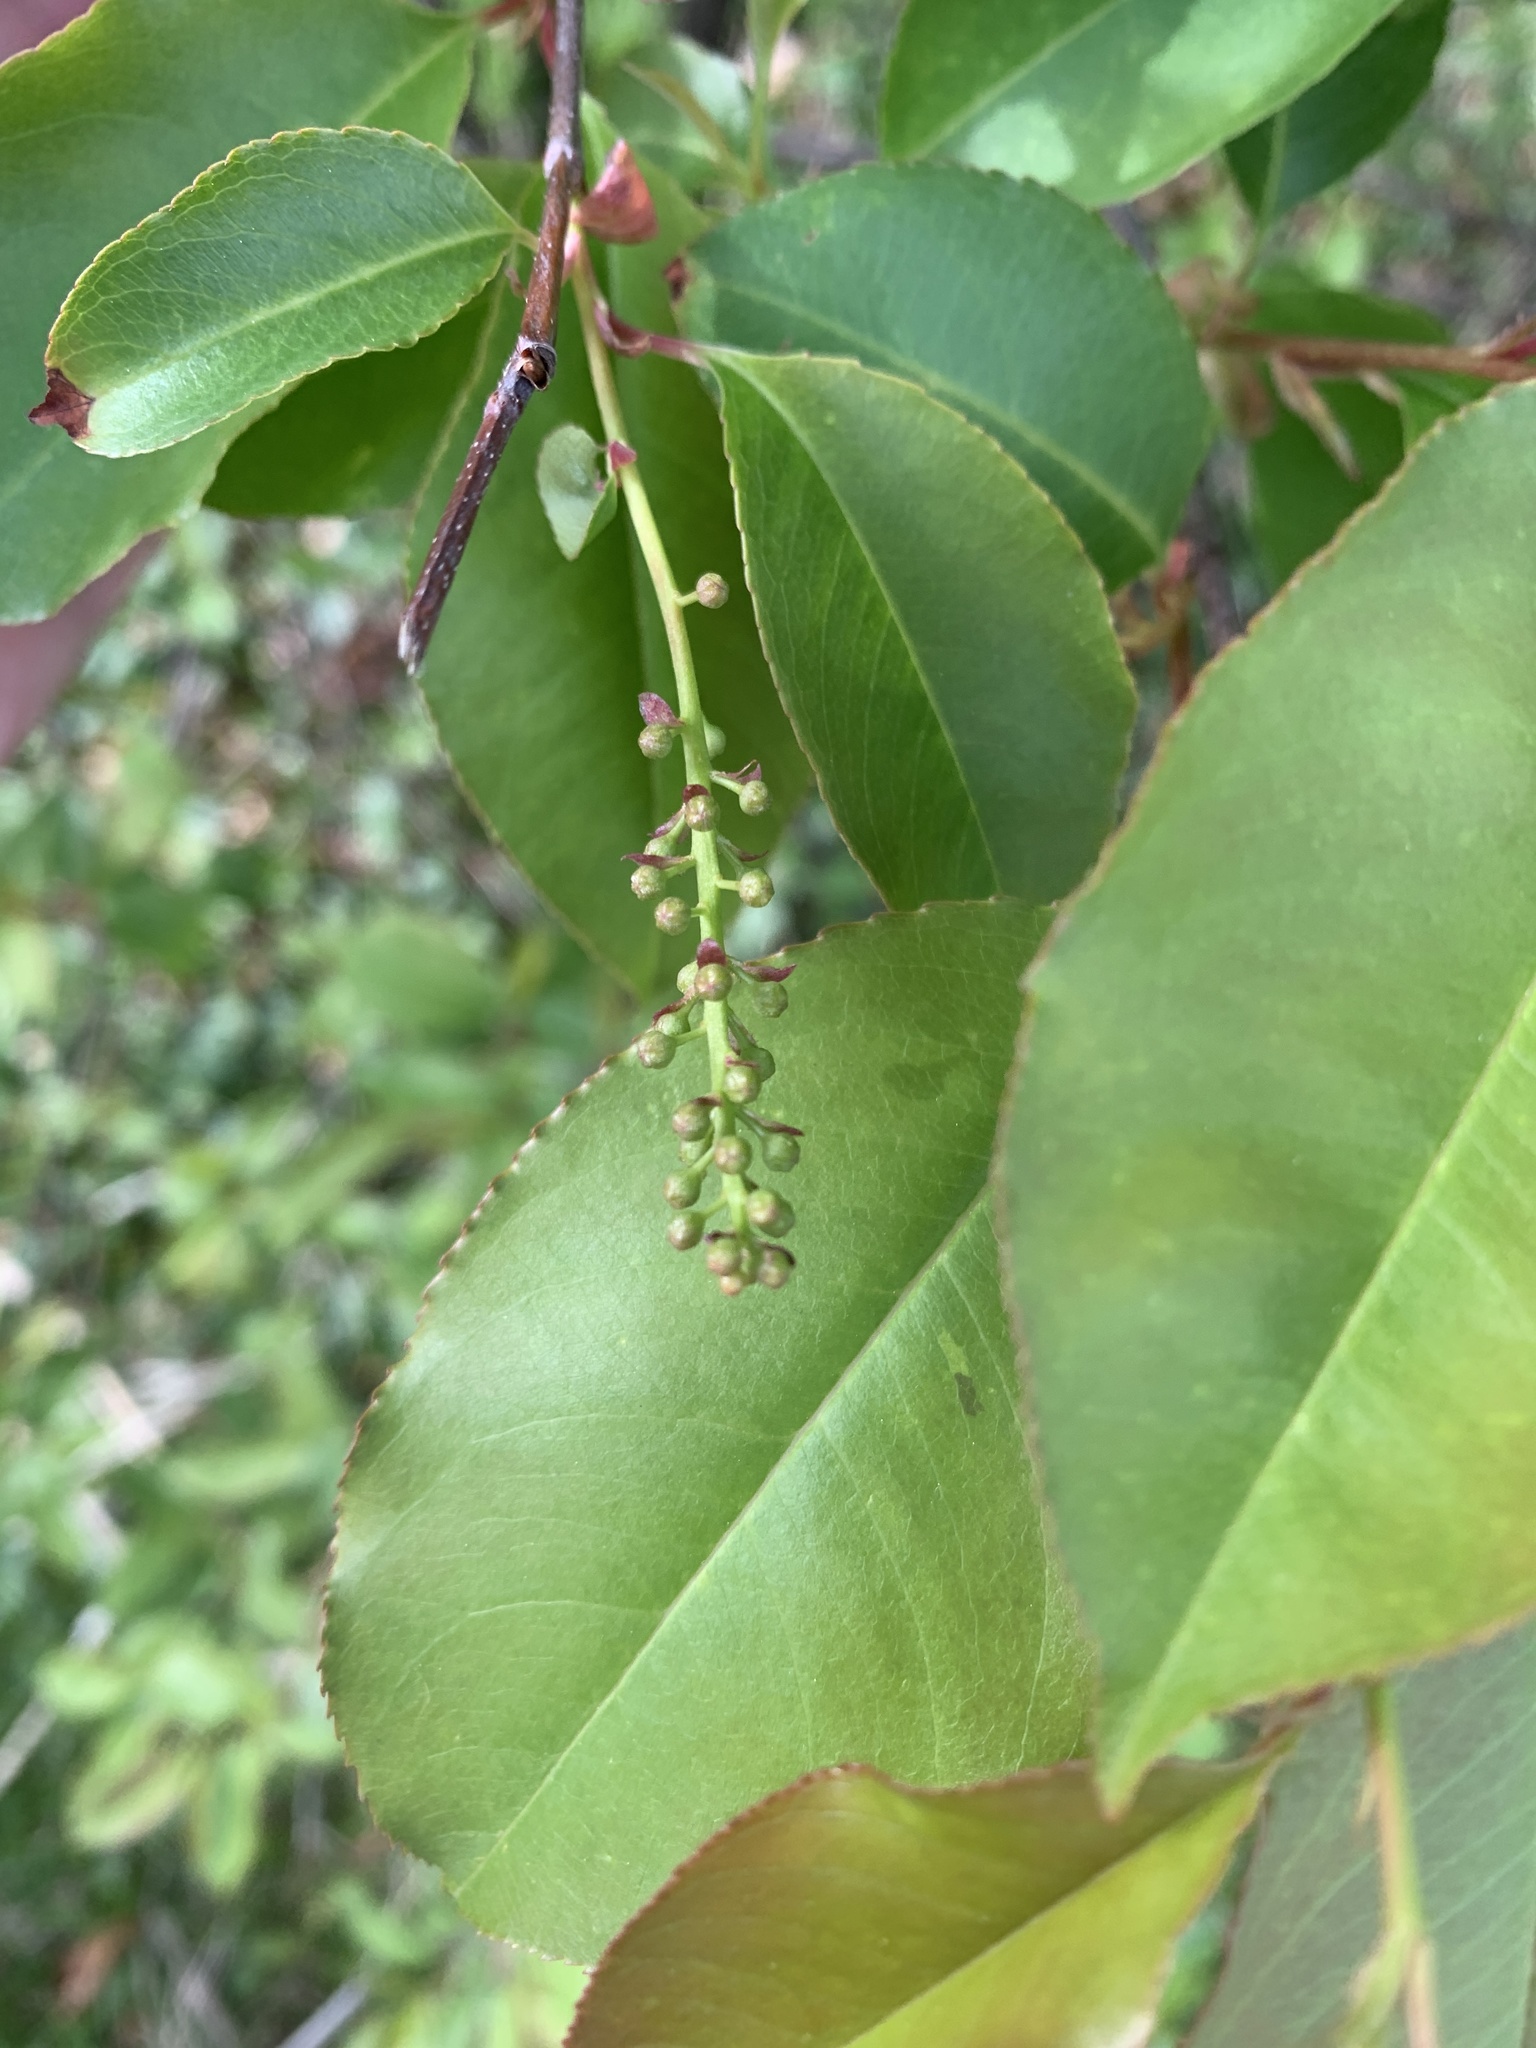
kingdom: Plantae
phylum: Tracheophyta
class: Magnoliopsida
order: Rosales
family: Rosaceae
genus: Prunus
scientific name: Prunus serotina
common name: Black cherry
